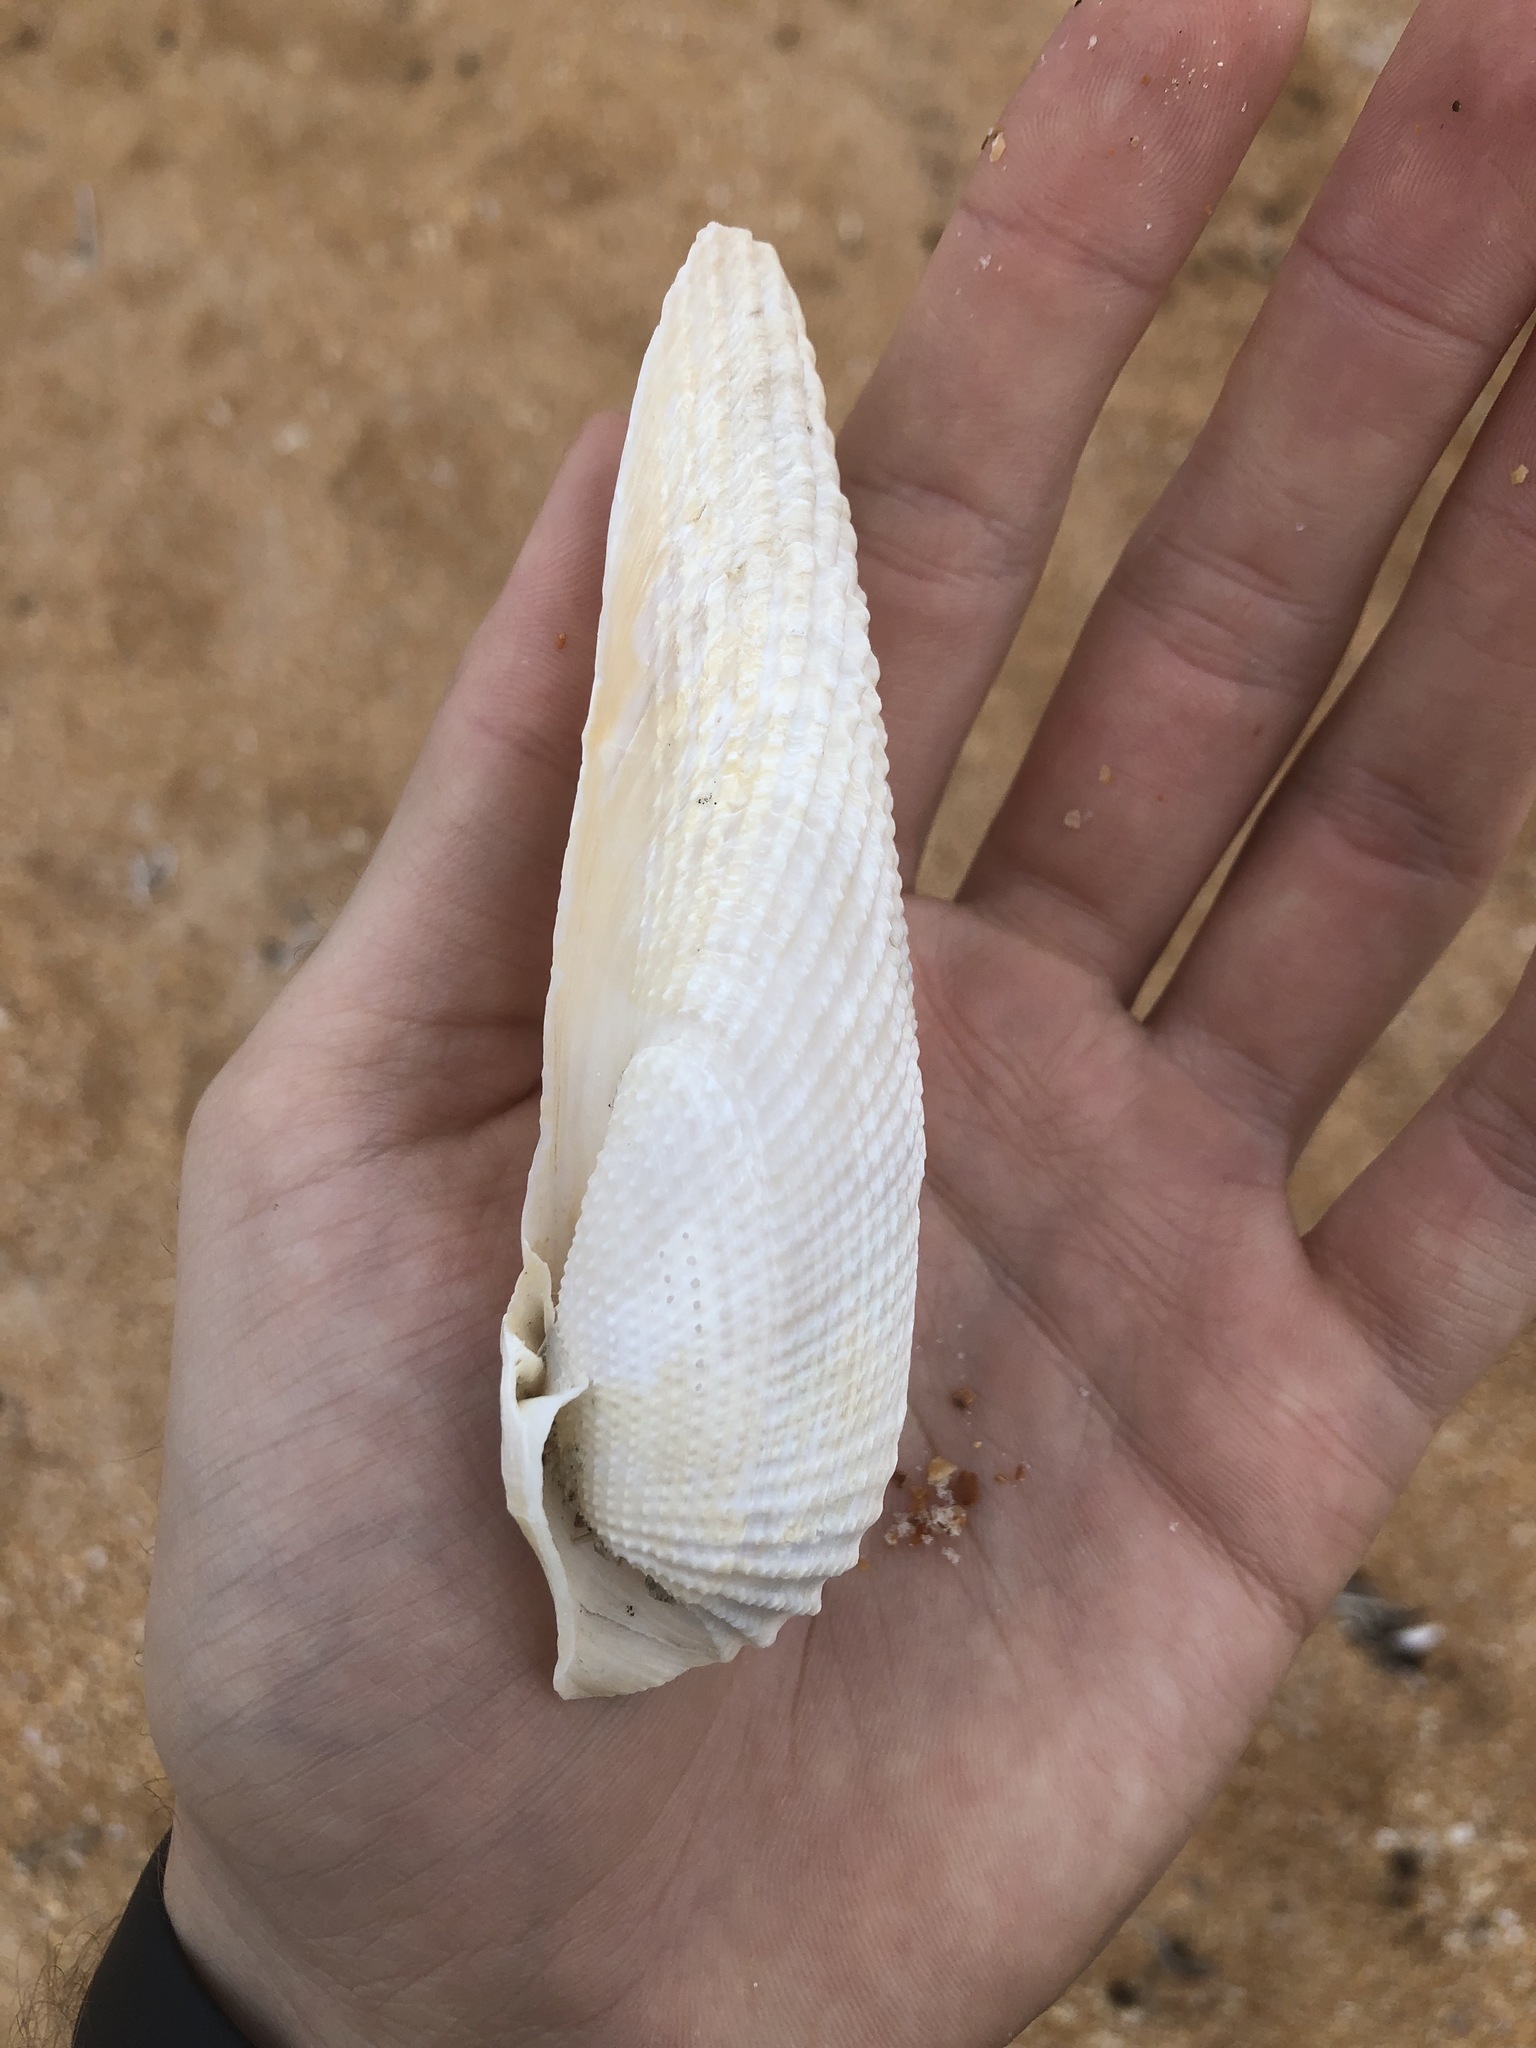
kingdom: Animalia
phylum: Mollusca
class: Bivalvia
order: Myida
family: Pholadidae
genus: Cyrtopleura
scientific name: Cyrtopleura costata
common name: Angel wing
